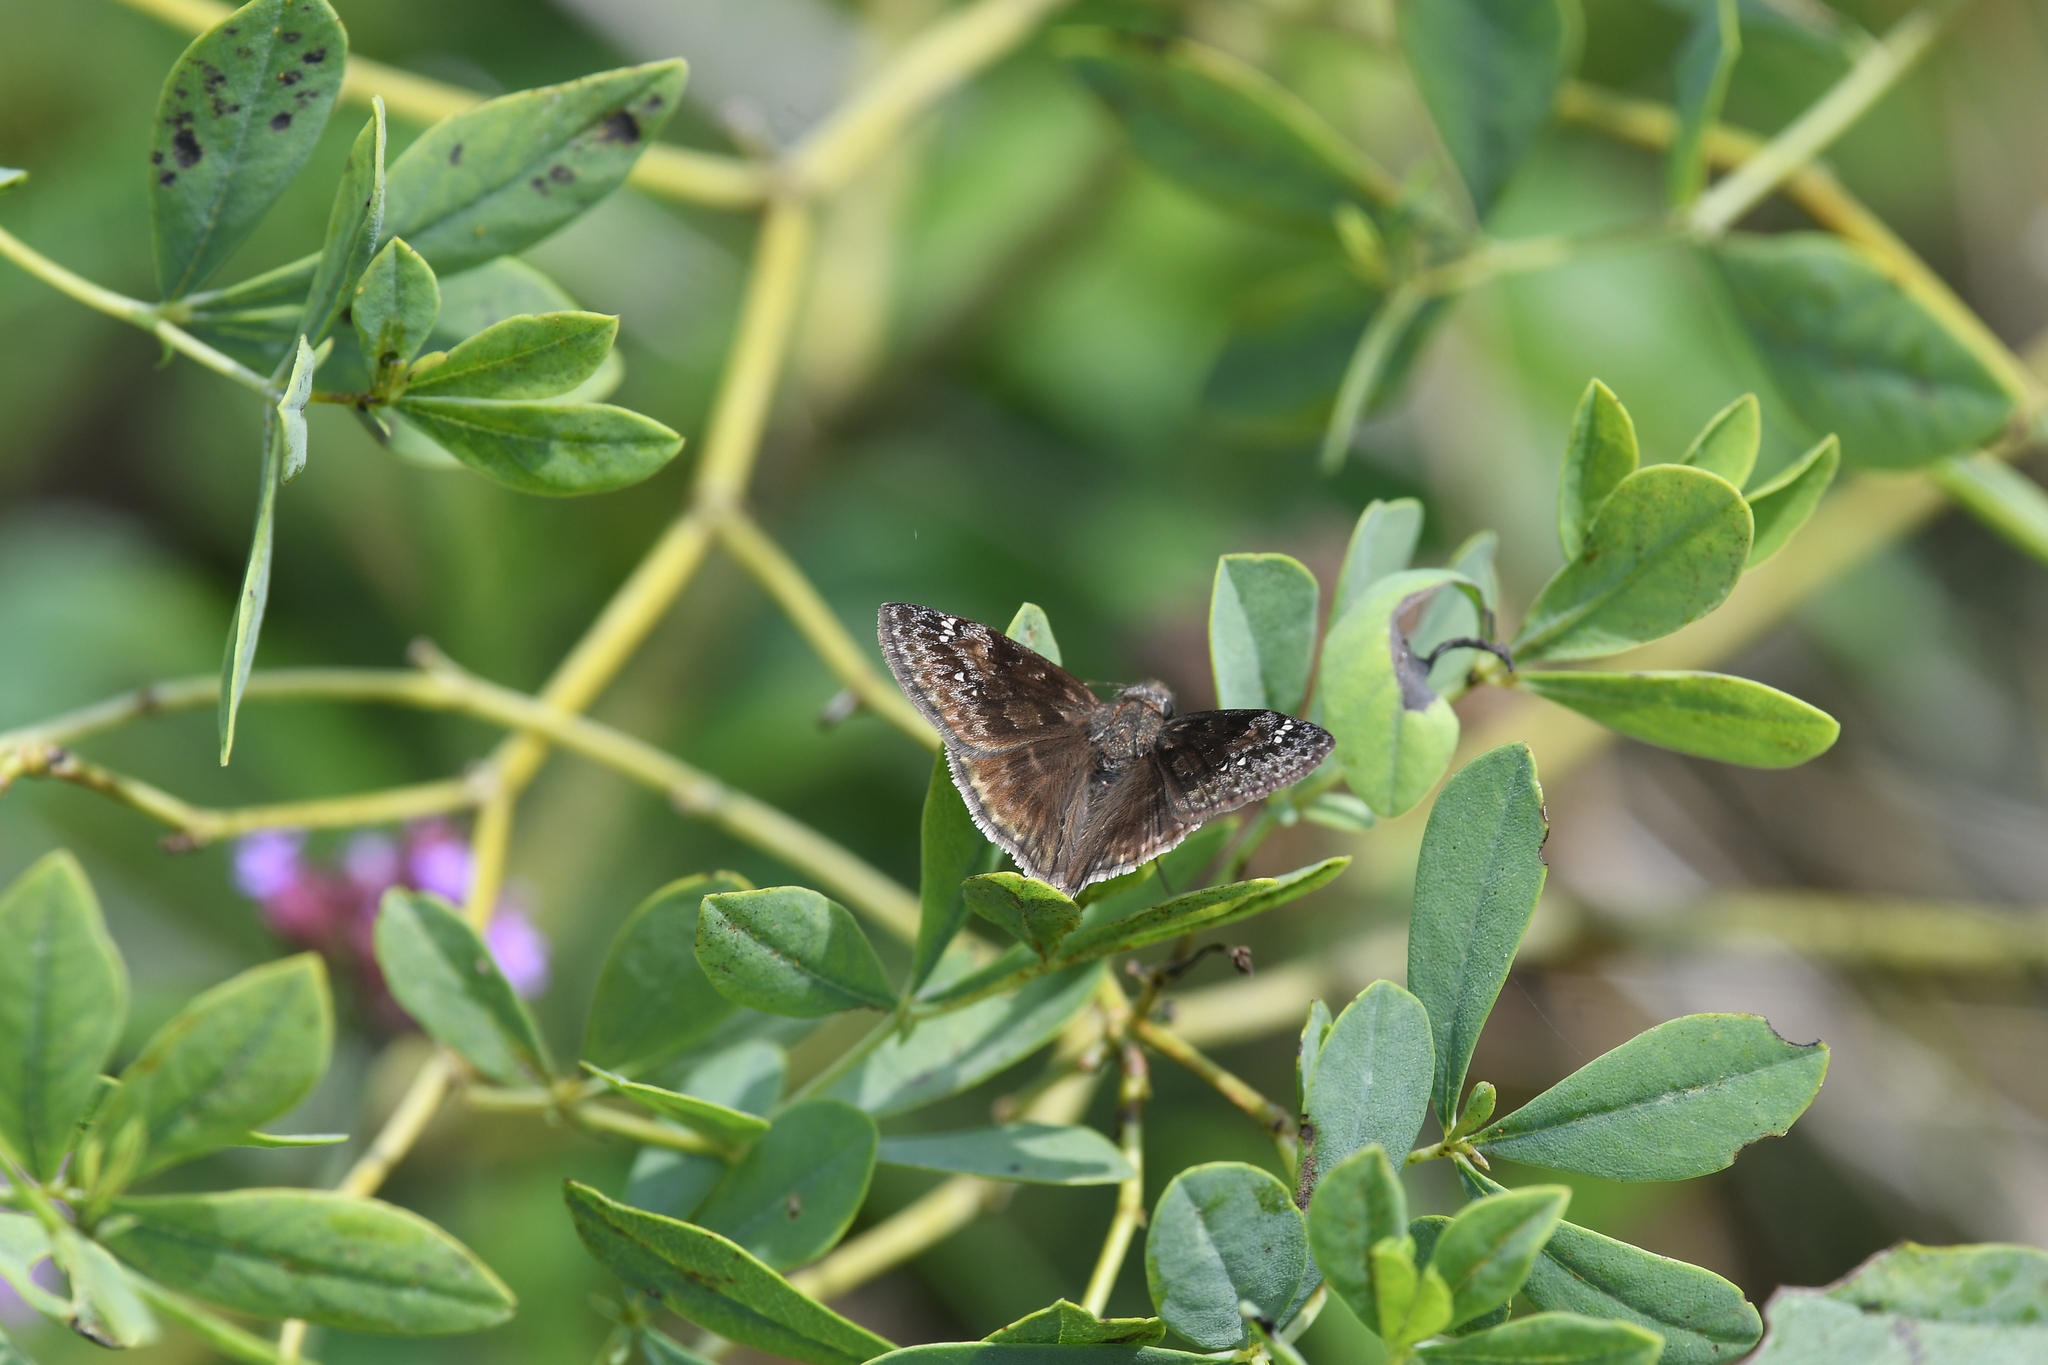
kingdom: Animalia
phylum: Arthropoda
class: Insecta
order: Lepidoptera
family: Hesperiidae
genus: Erynnis
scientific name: Erynnis baptisiae
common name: Wild indigo duskywing
